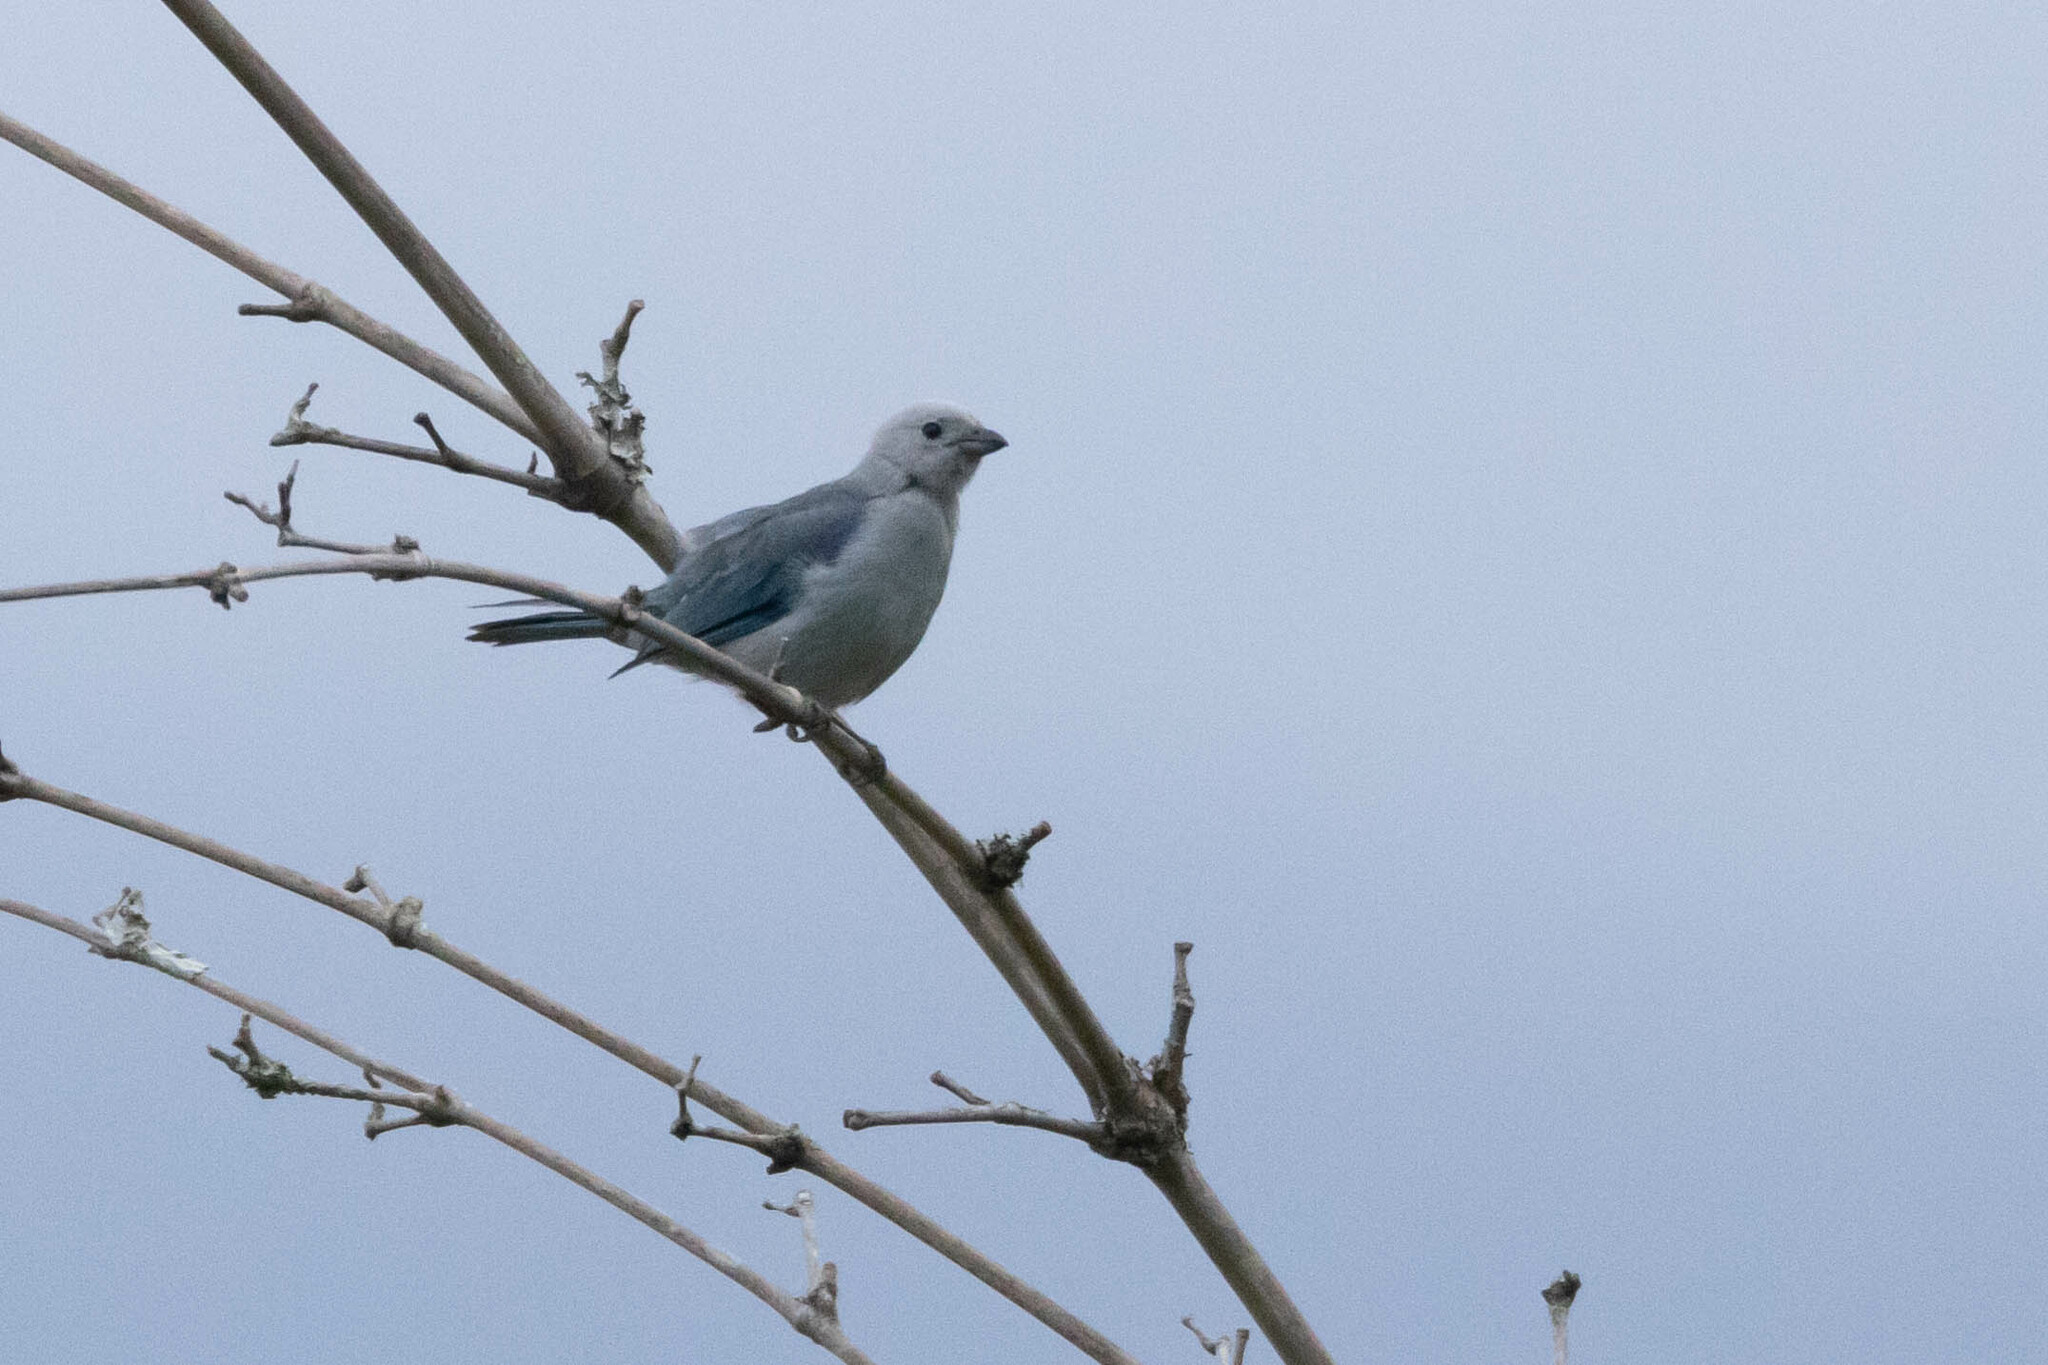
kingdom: Animalia
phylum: Chordata
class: Aves
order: Passeriformes
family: Thraupidae
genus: Thraupis
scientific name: Thraupis episcopus
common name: Blue-grey tanager
